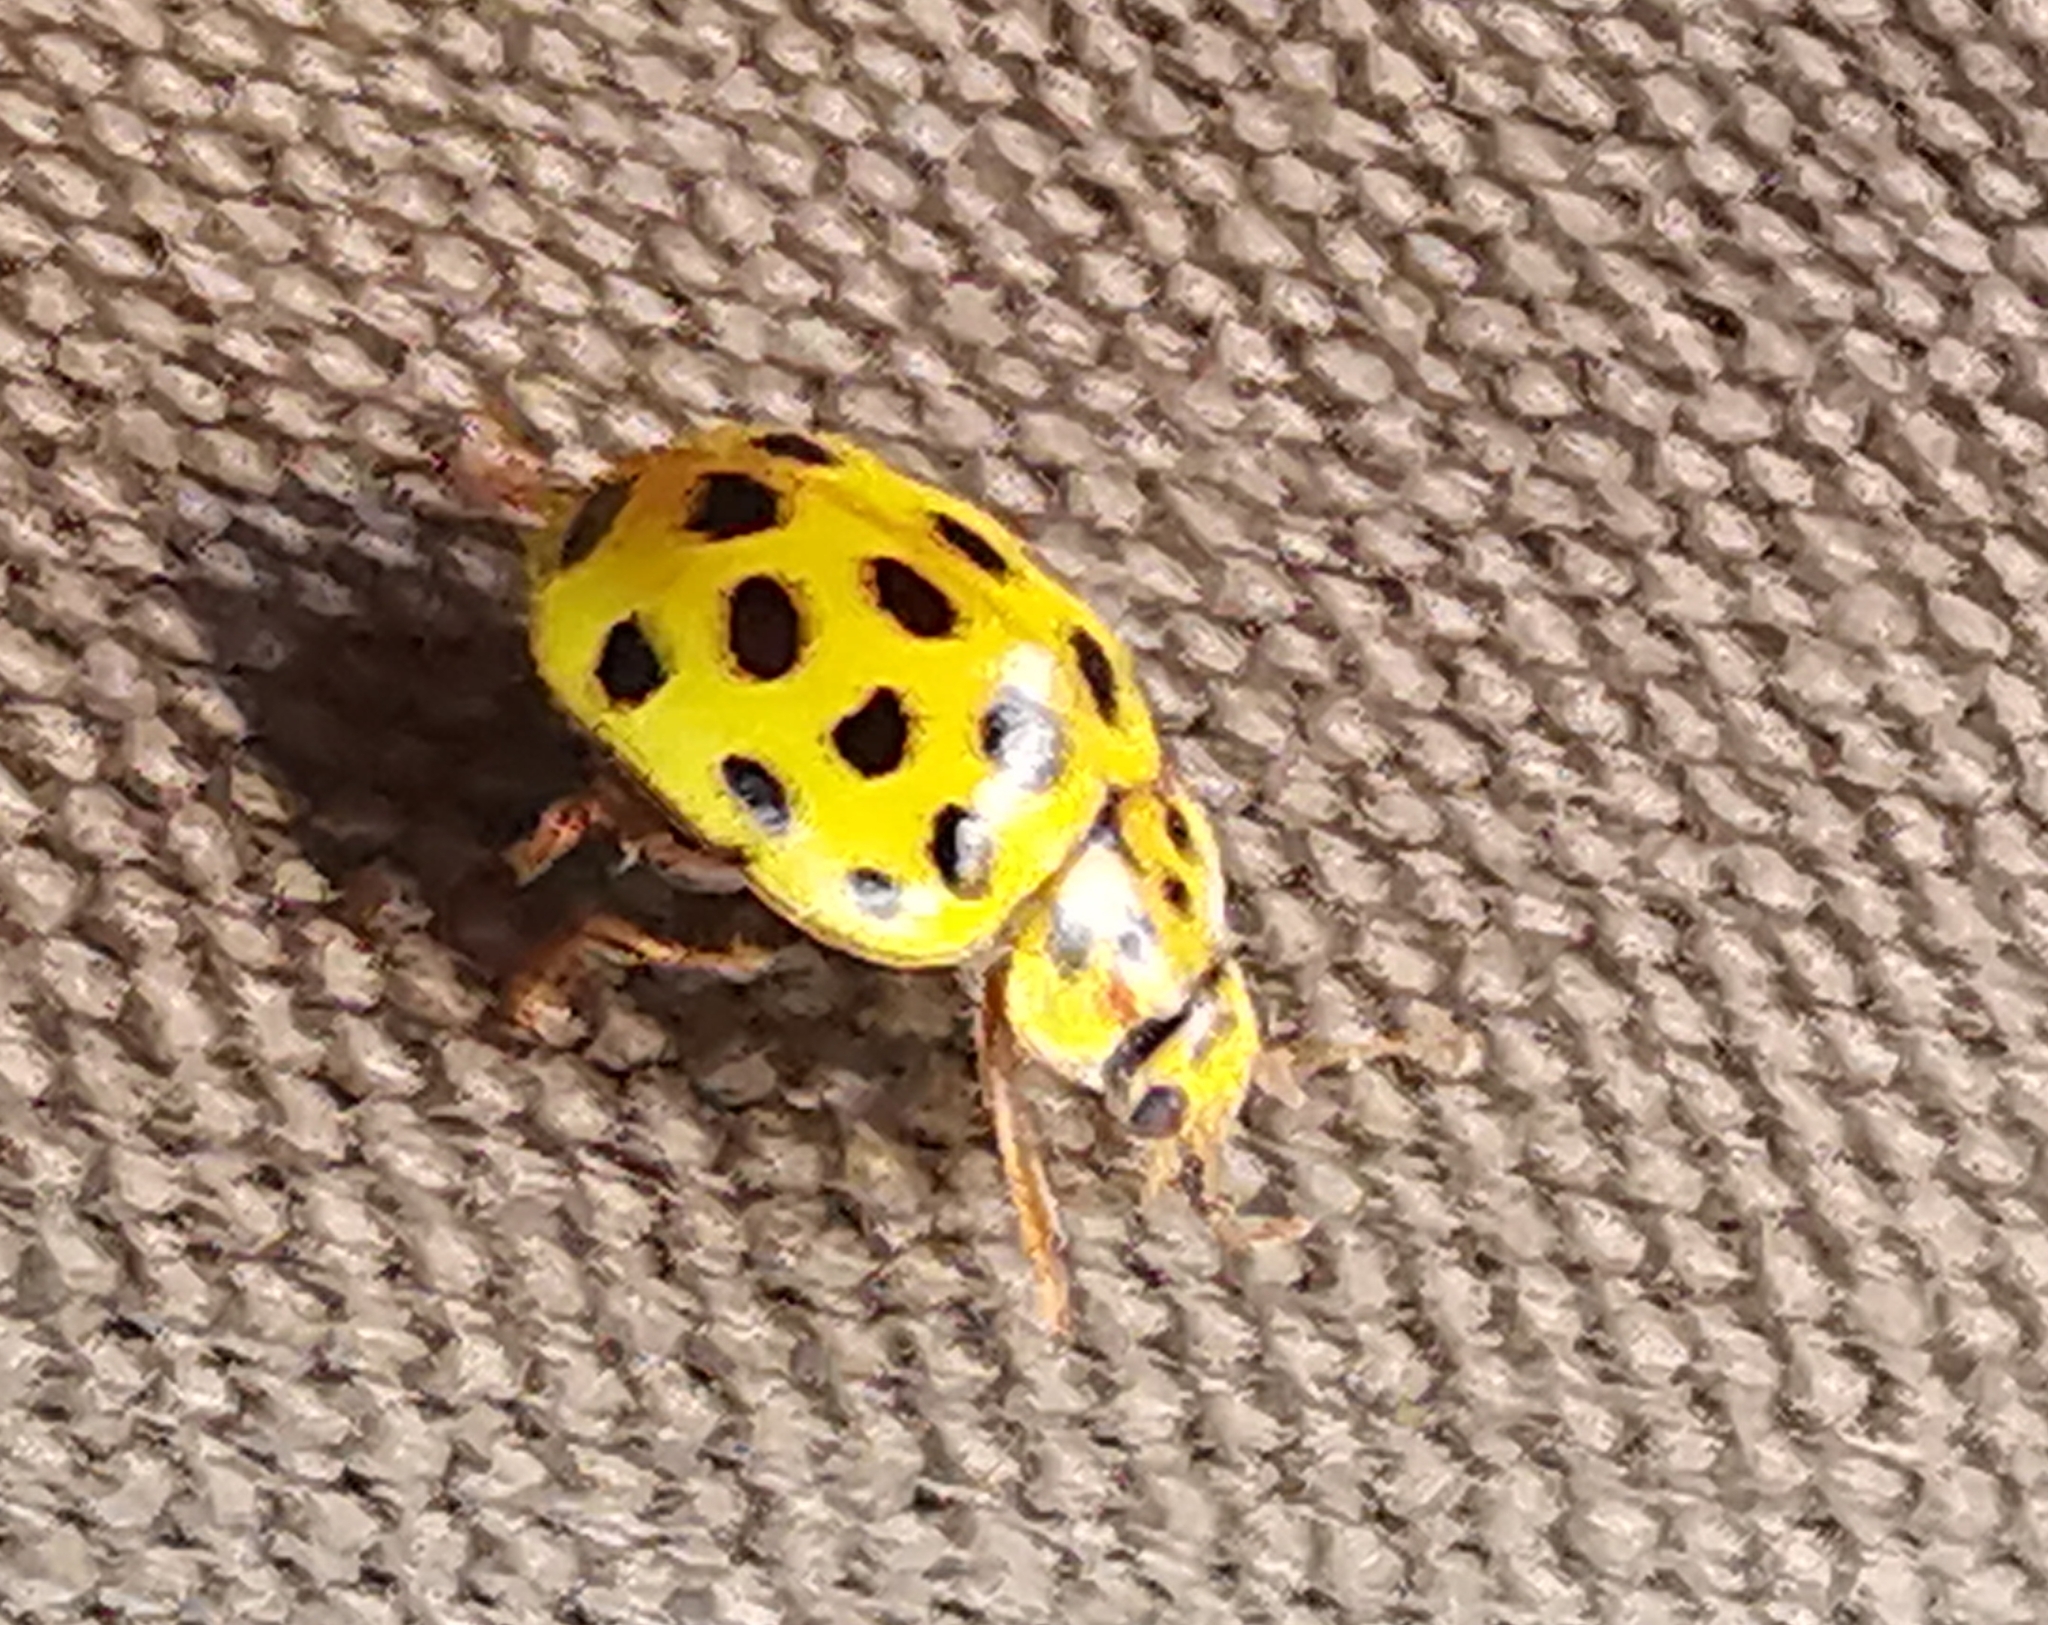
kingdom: Animalia
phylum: Arthropoda
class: Insecta
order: Coleoptera
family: Coccinellidae
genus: Psyllobora
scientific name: Psyllobora vigintiduopunctata
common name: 22-spot ladybird
